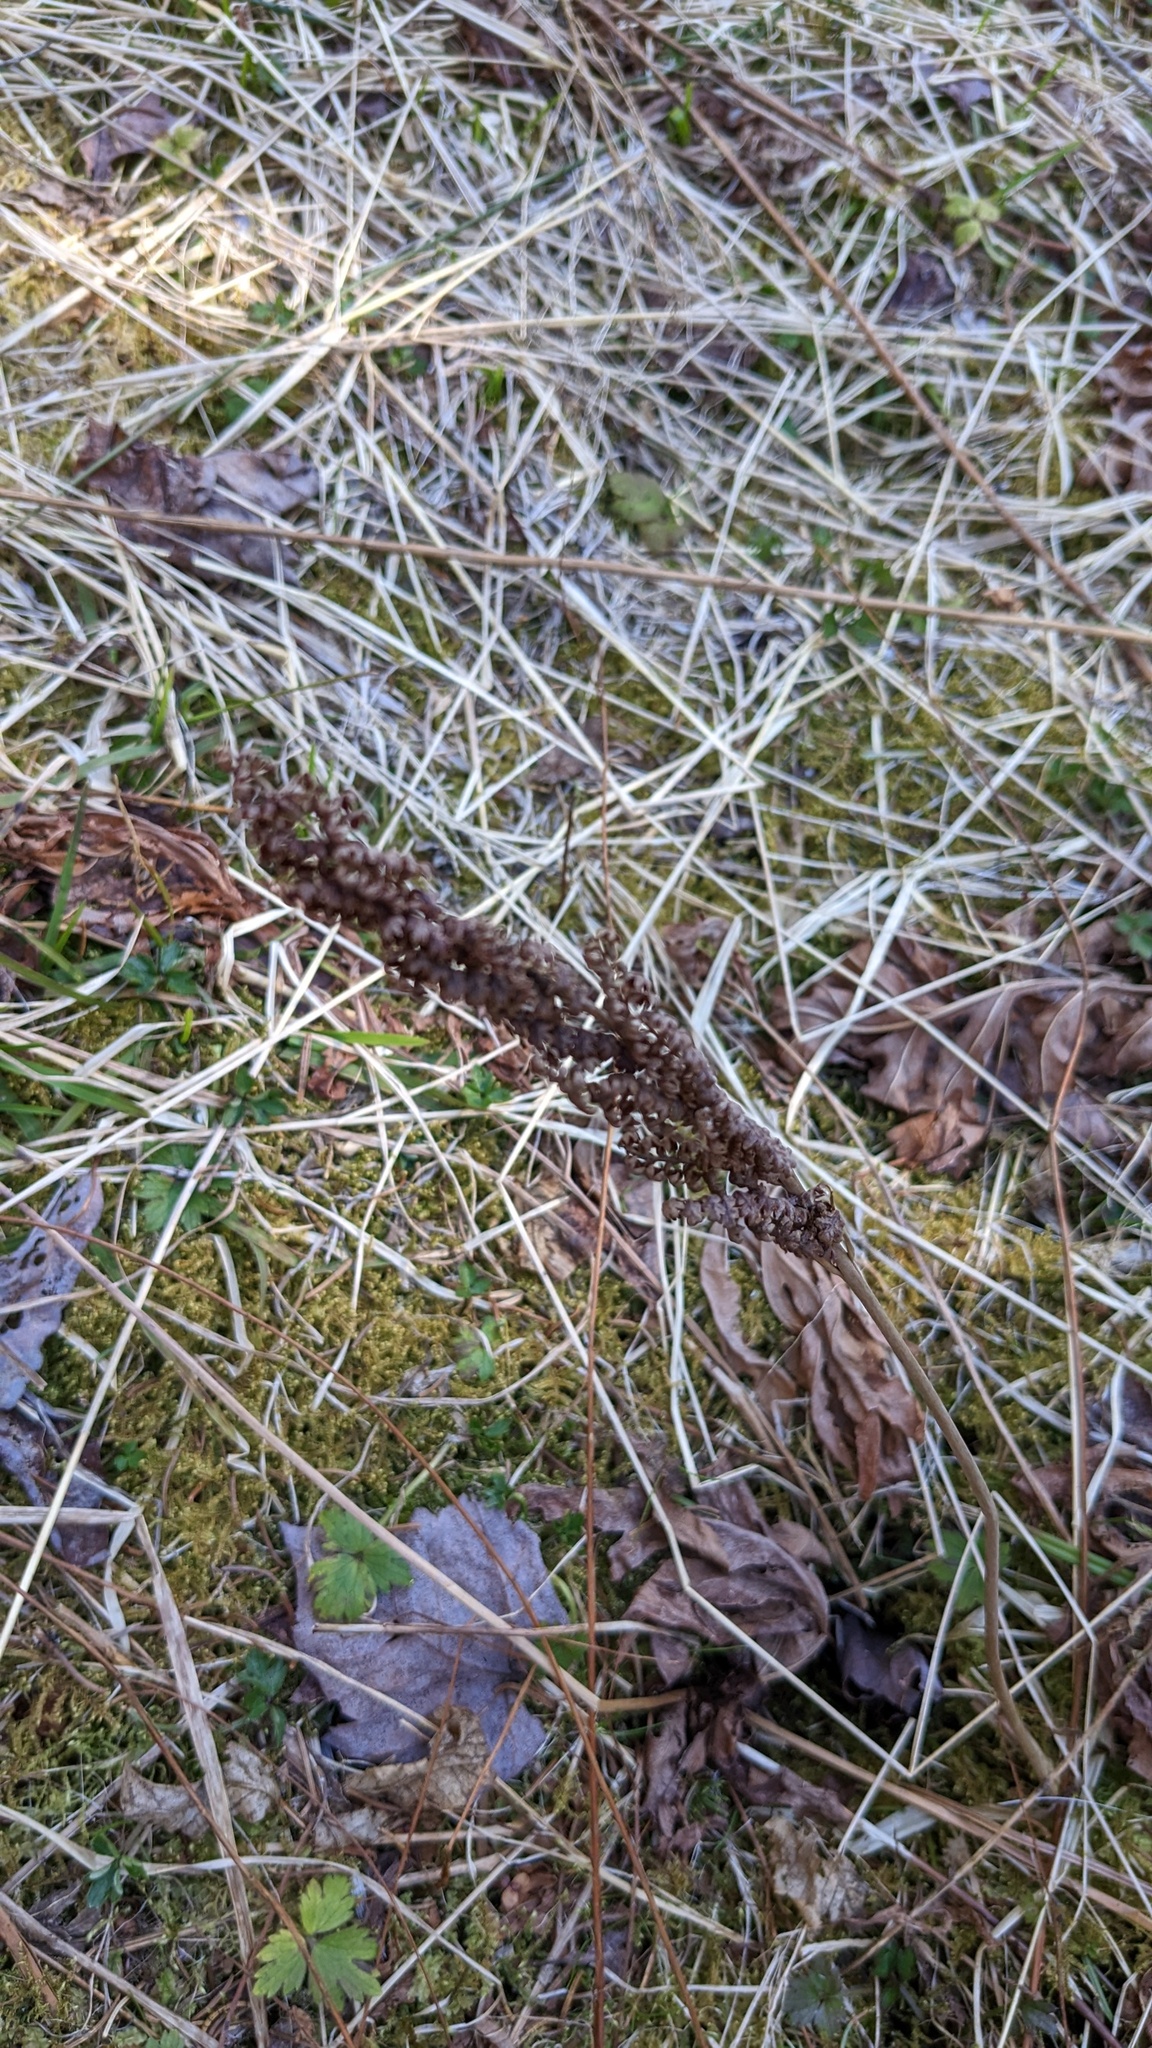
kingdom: Plantae
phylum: Tracheophyta
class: Polypodiopsida
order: Polypodiales
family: Onocleaceae
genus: Onoclea
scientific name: Onoclea sensibilis
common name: Sensitive fern
